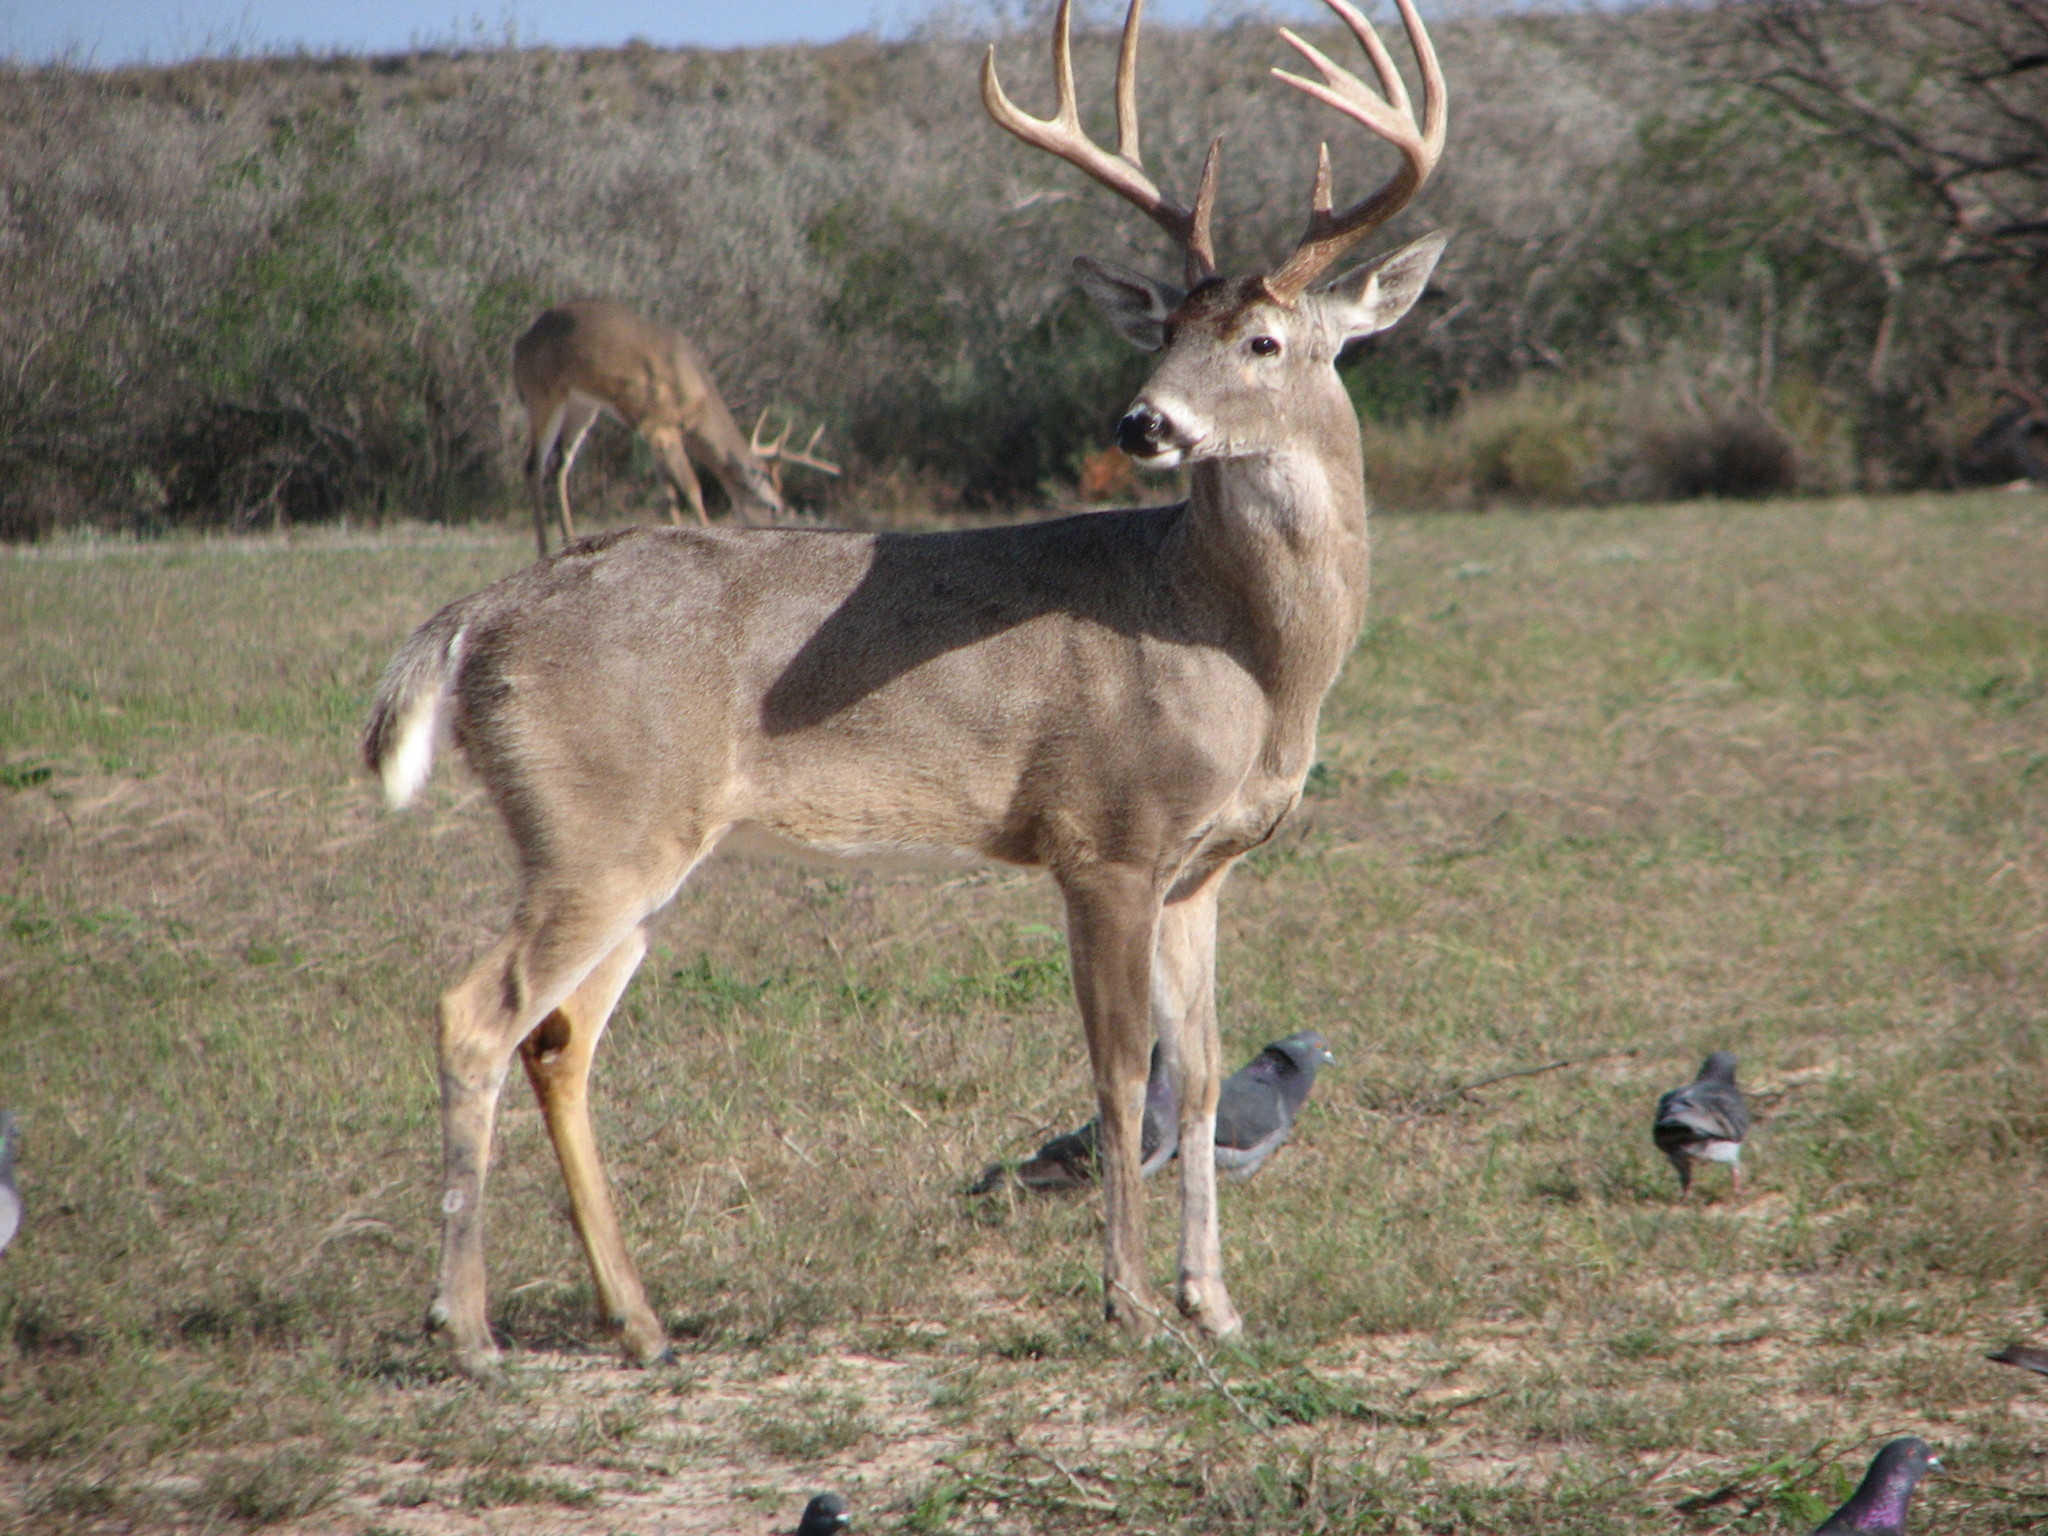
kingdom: Animalia
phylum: Chordata
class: Mammalia
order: Artiodactyla
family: Cervidae
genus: Odocoileus
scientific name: Odocoileus virginianus
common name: White-tailed deer
